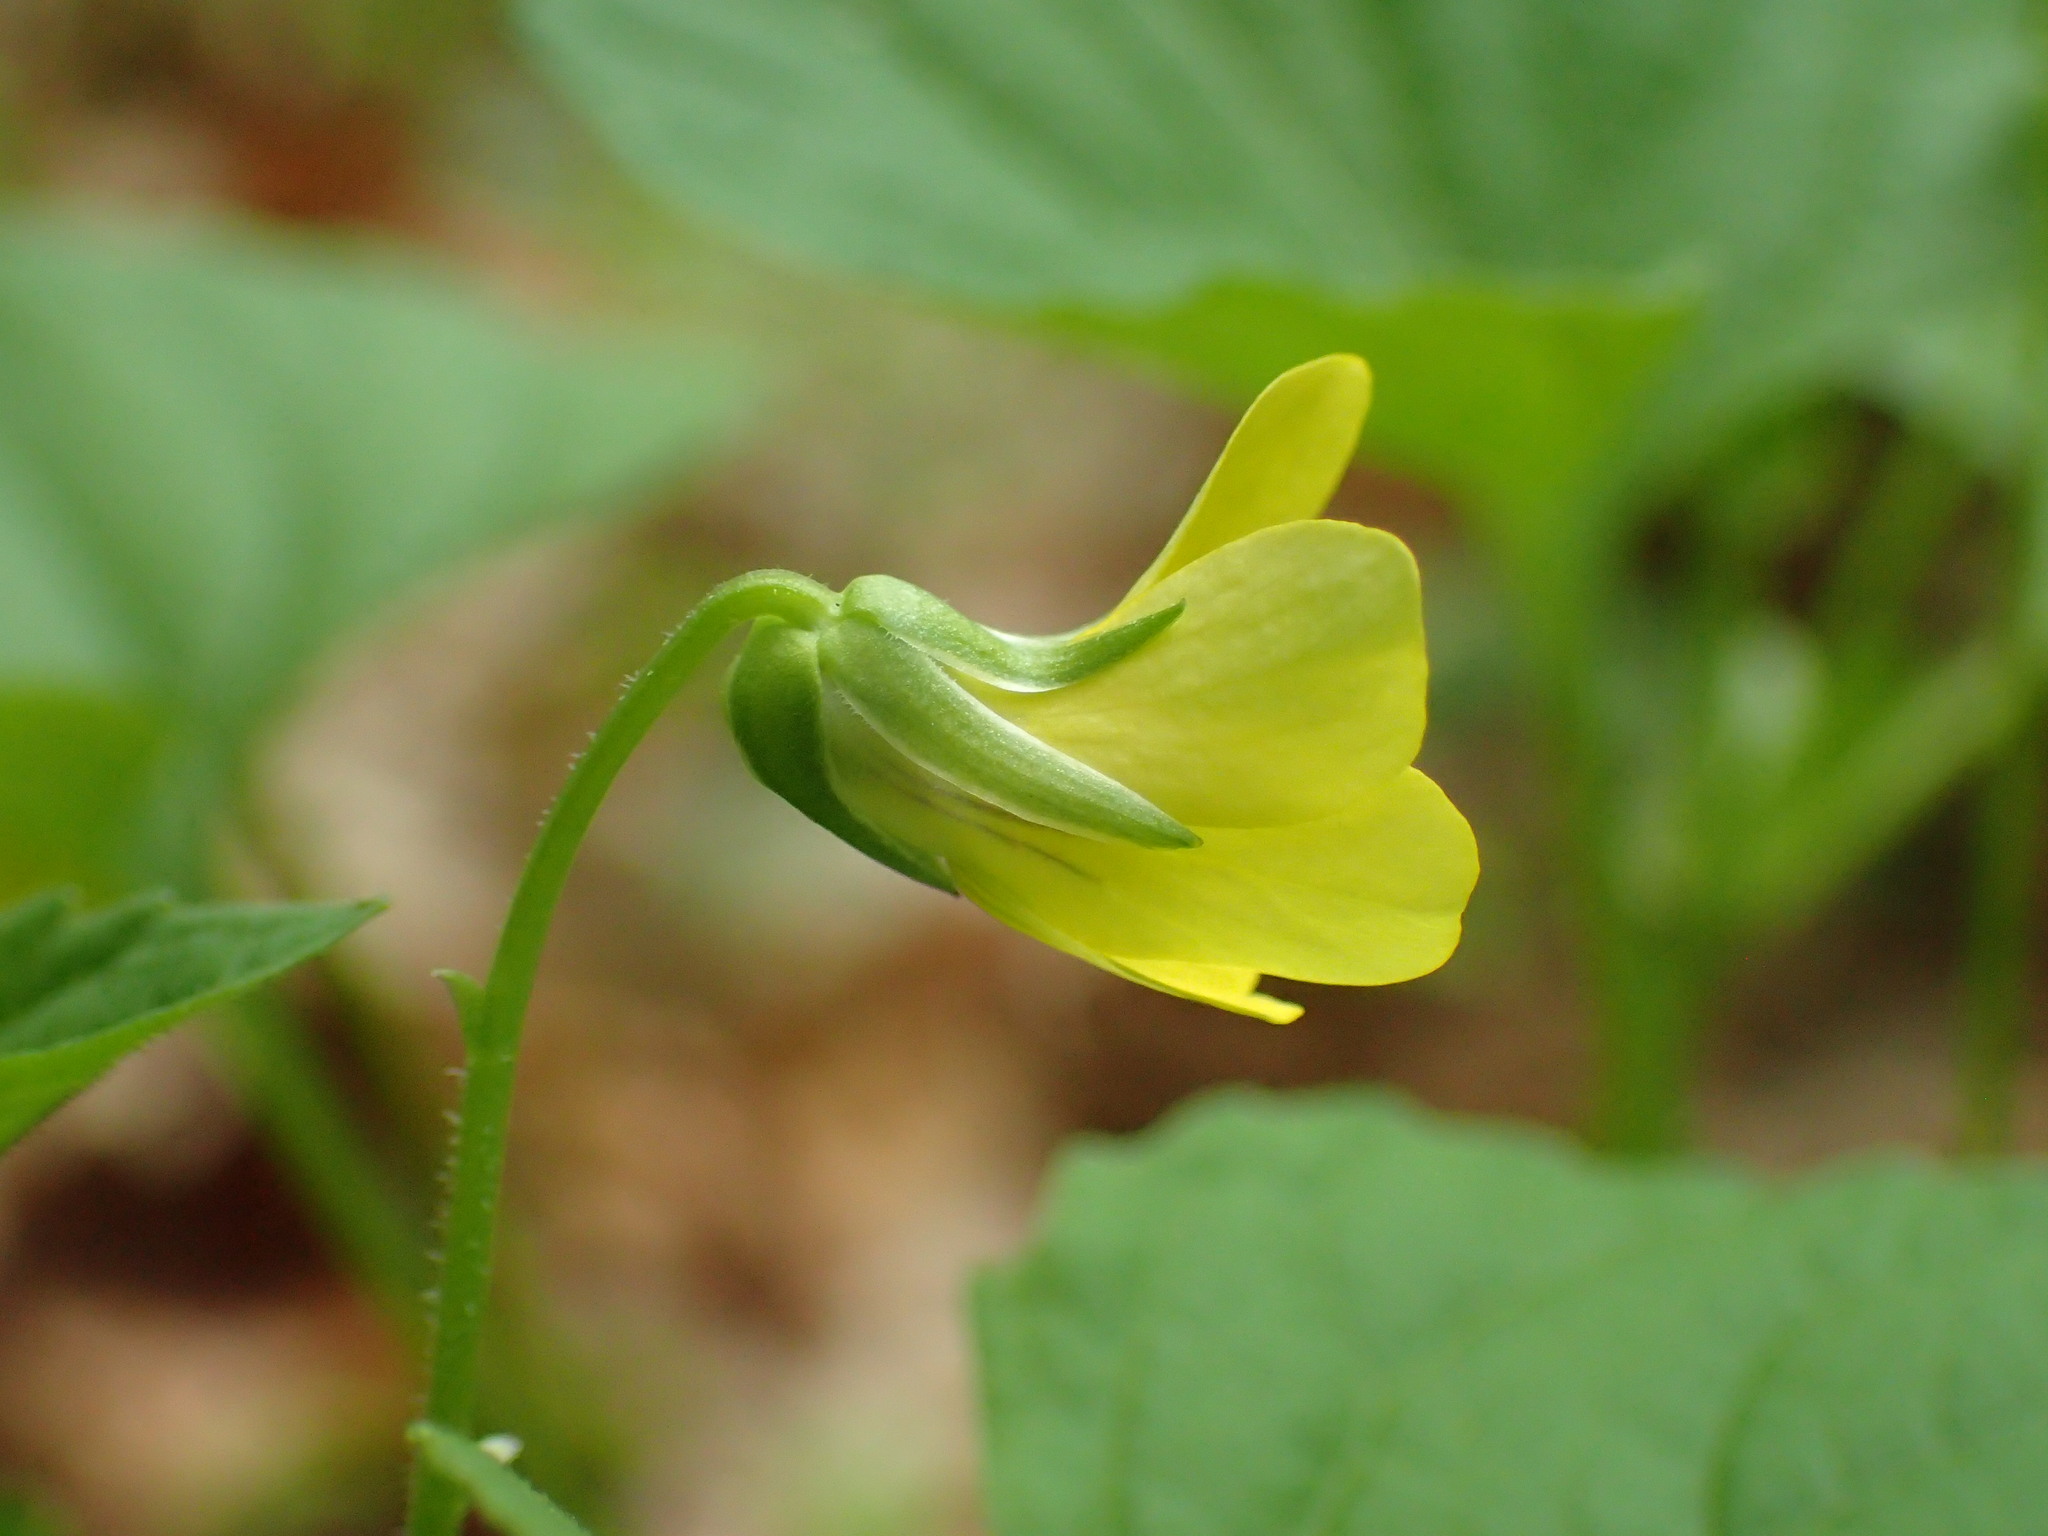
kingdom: Plantae
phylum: Tracheophyta
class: Magnoliopsida
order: Malpighiales
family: Violaceae
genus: Viola
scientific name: Viola eriocarpa
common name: Smooth yellow violet
